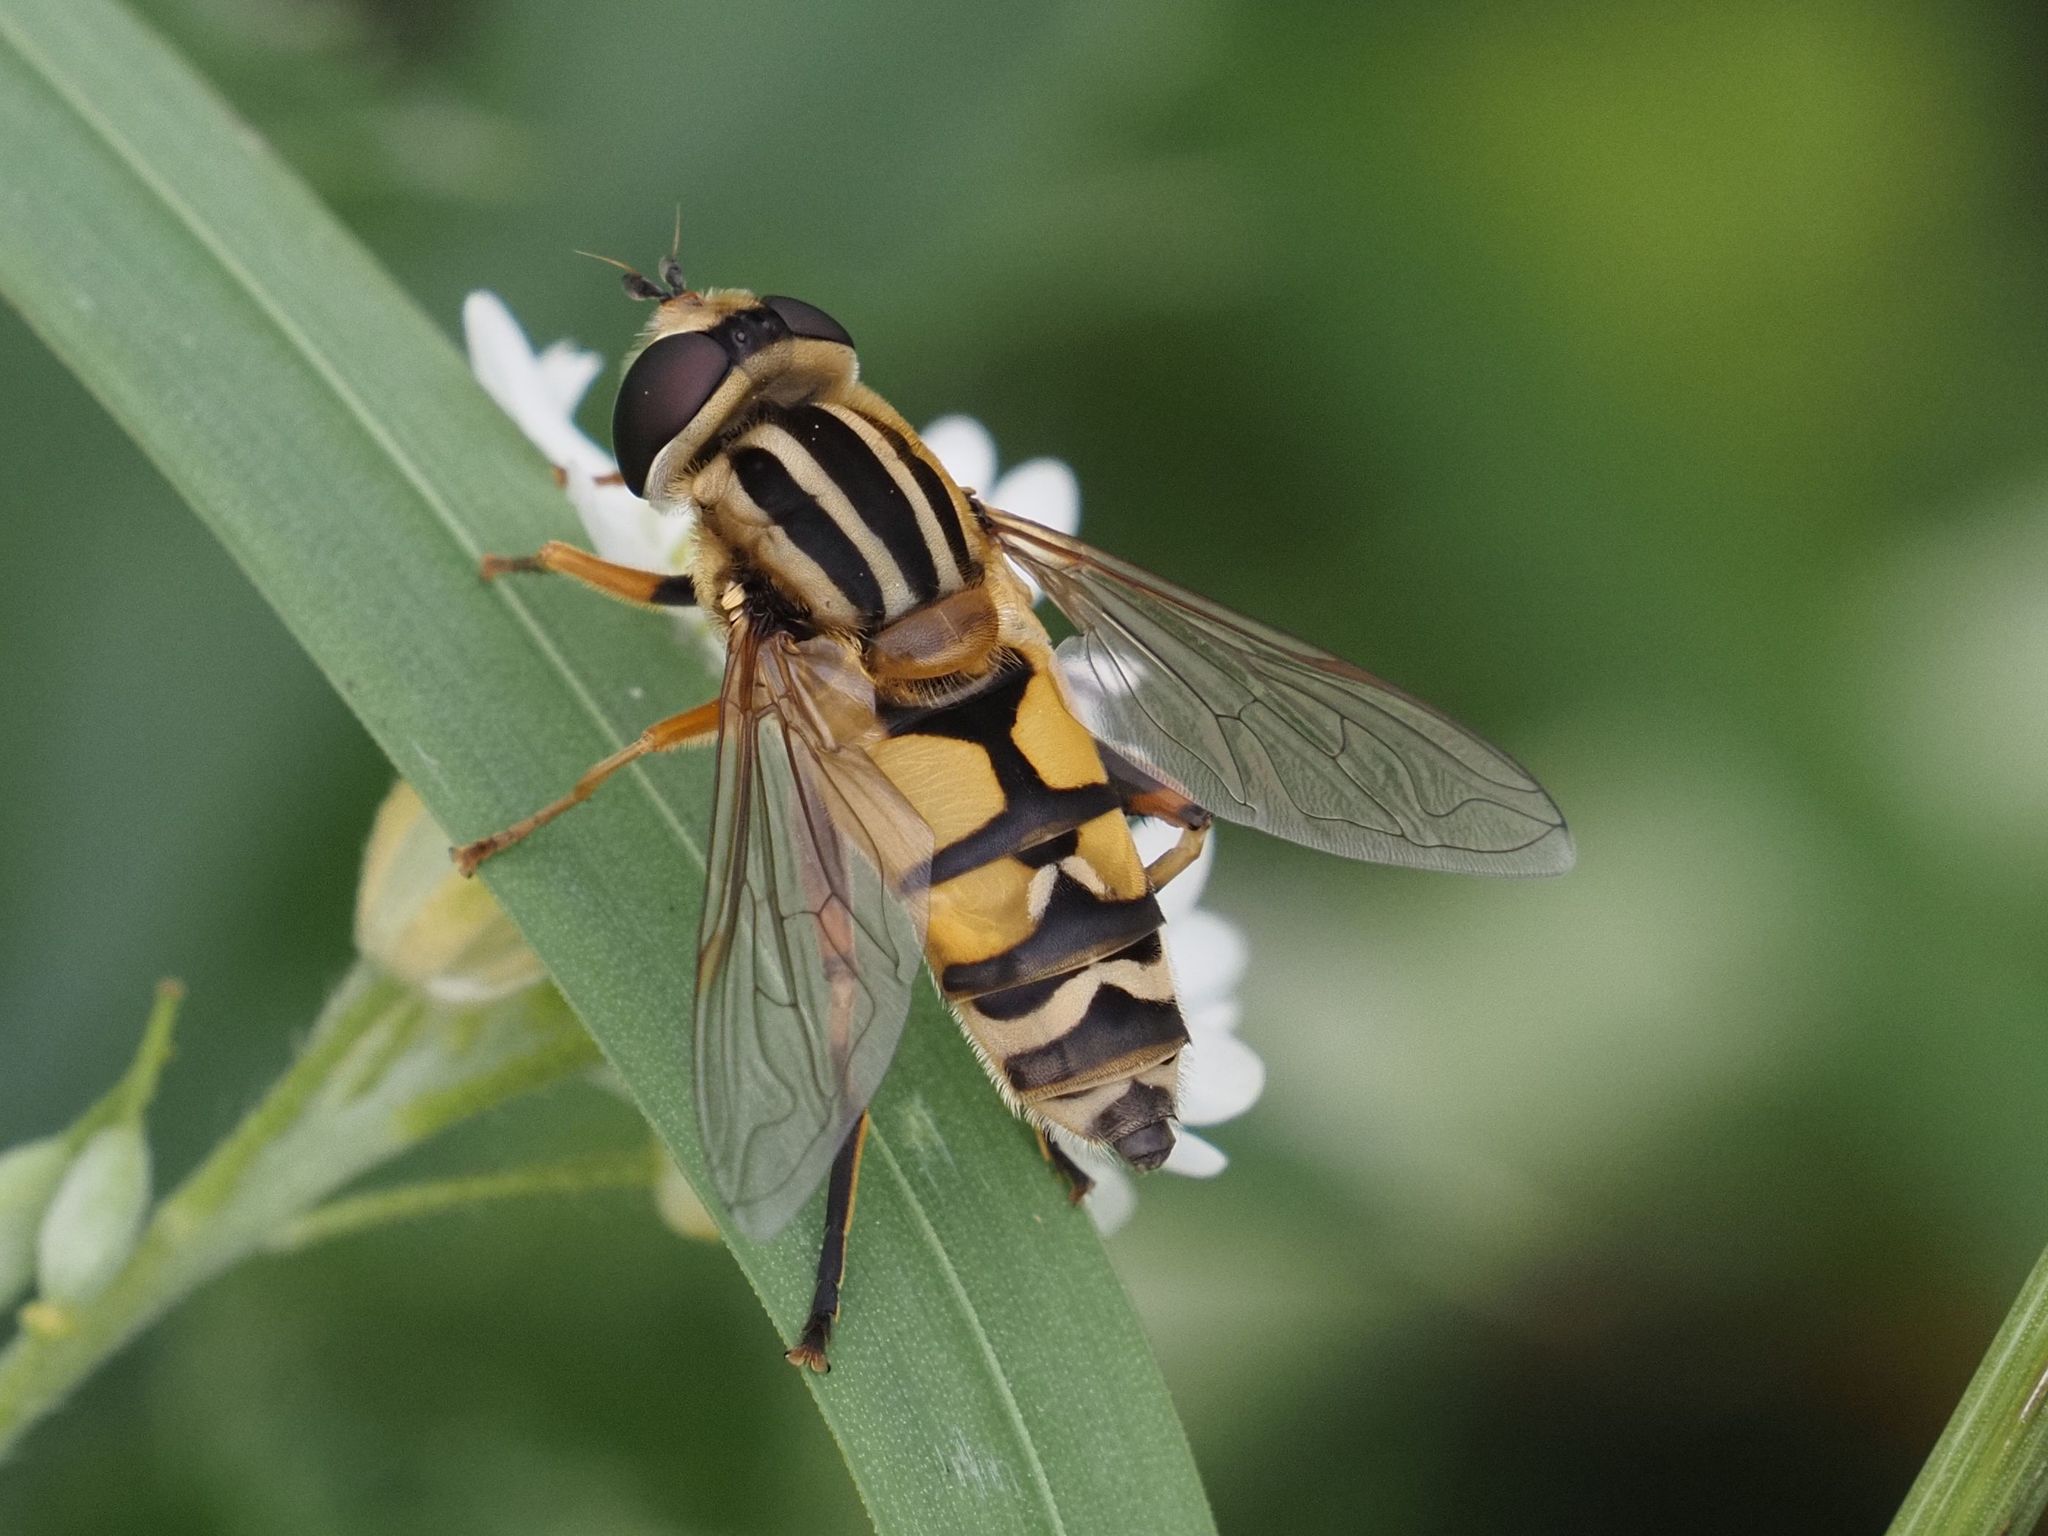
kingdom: Animalia
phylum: Arthropoda
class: Insecta
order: Diptera
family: Syrphidae
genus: Helophilus
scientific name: Helophilus trivittatus
